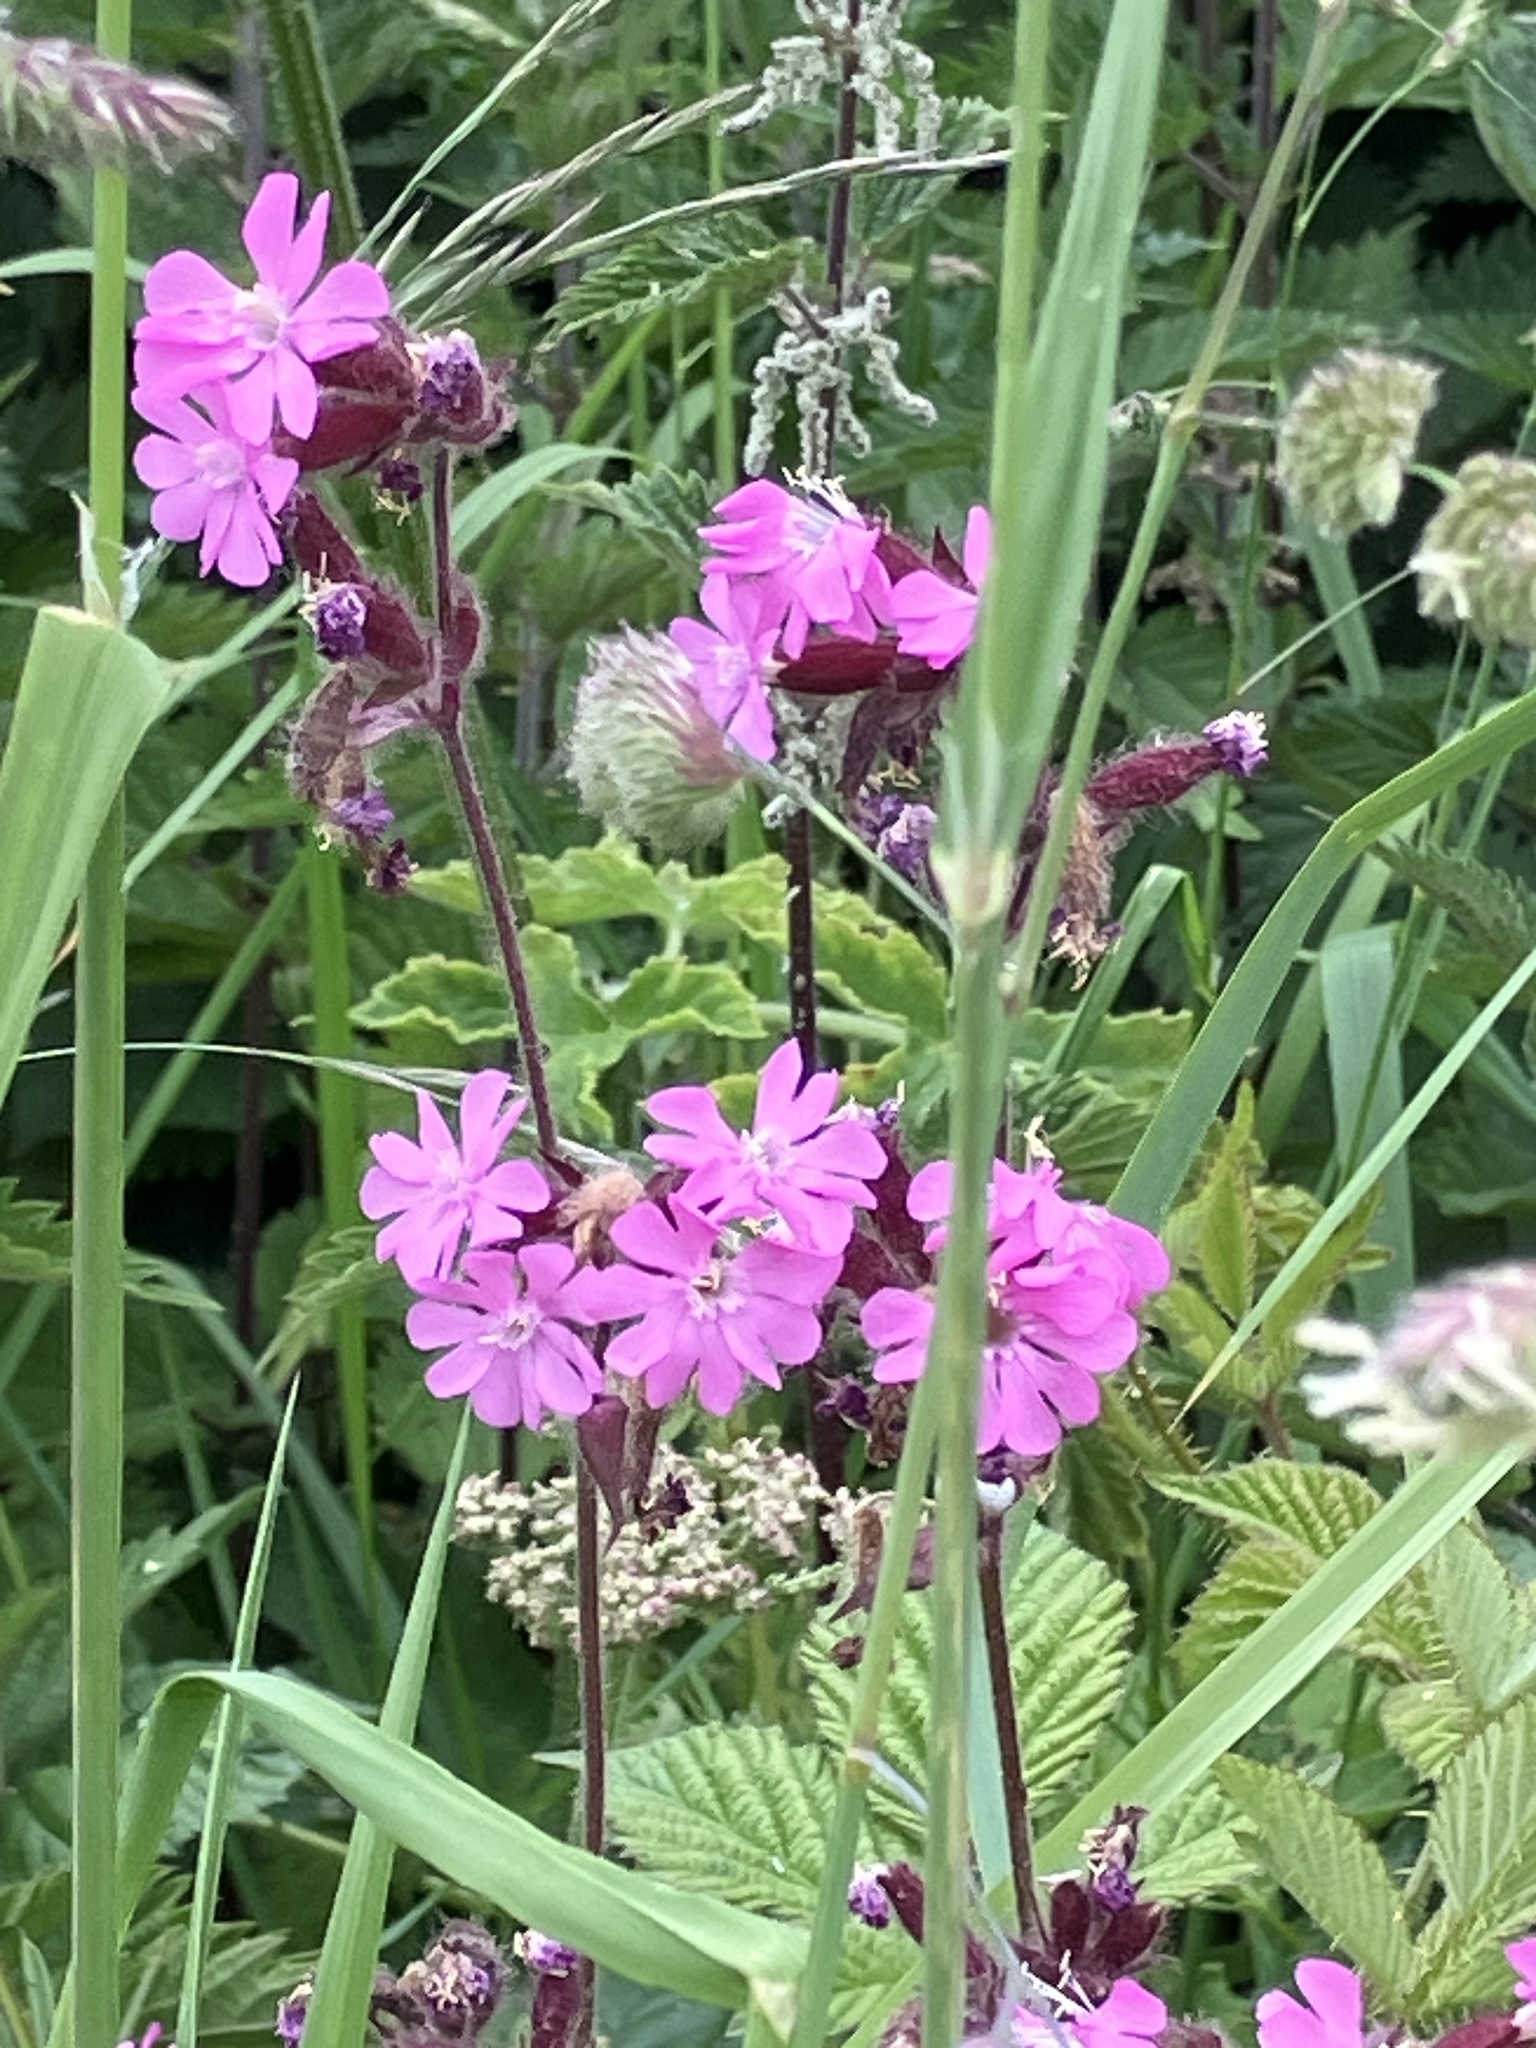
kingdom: Plantae
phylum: Tracheophyta
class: Magnoliopsida
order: Caryophyllales
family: Caryophyllaceae
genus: Silene
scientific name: Silene dioica
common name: Red campion
